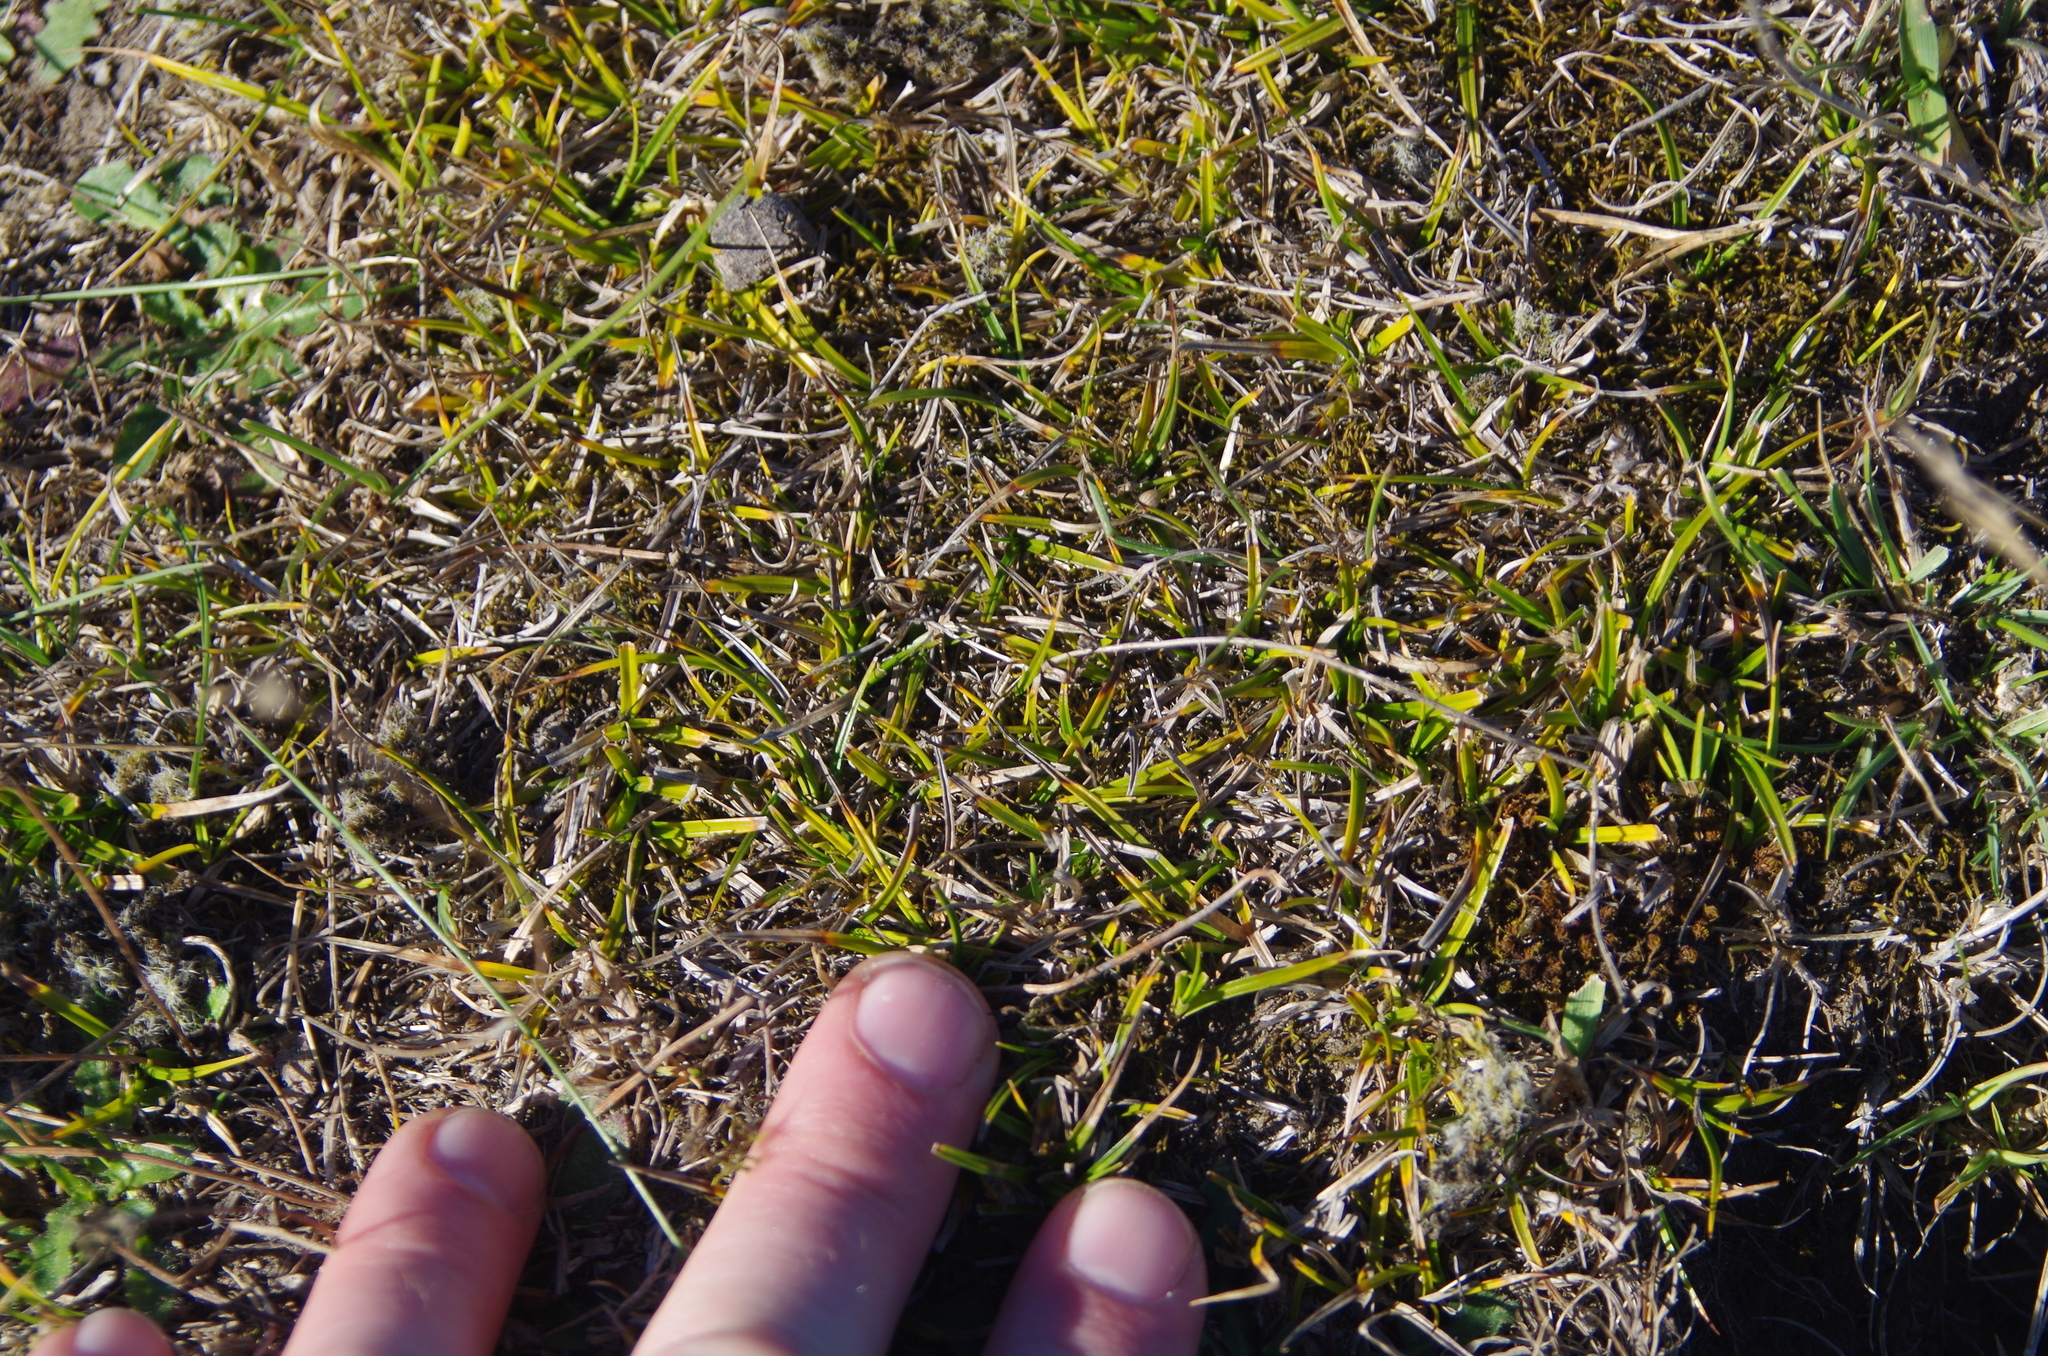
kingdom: Plantae
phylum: Tracheophyta
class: Liliopsida
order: Poales
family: Cyperaceae
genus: Carex
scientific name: Carex breviculmis
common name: Asian shortstem sedge
